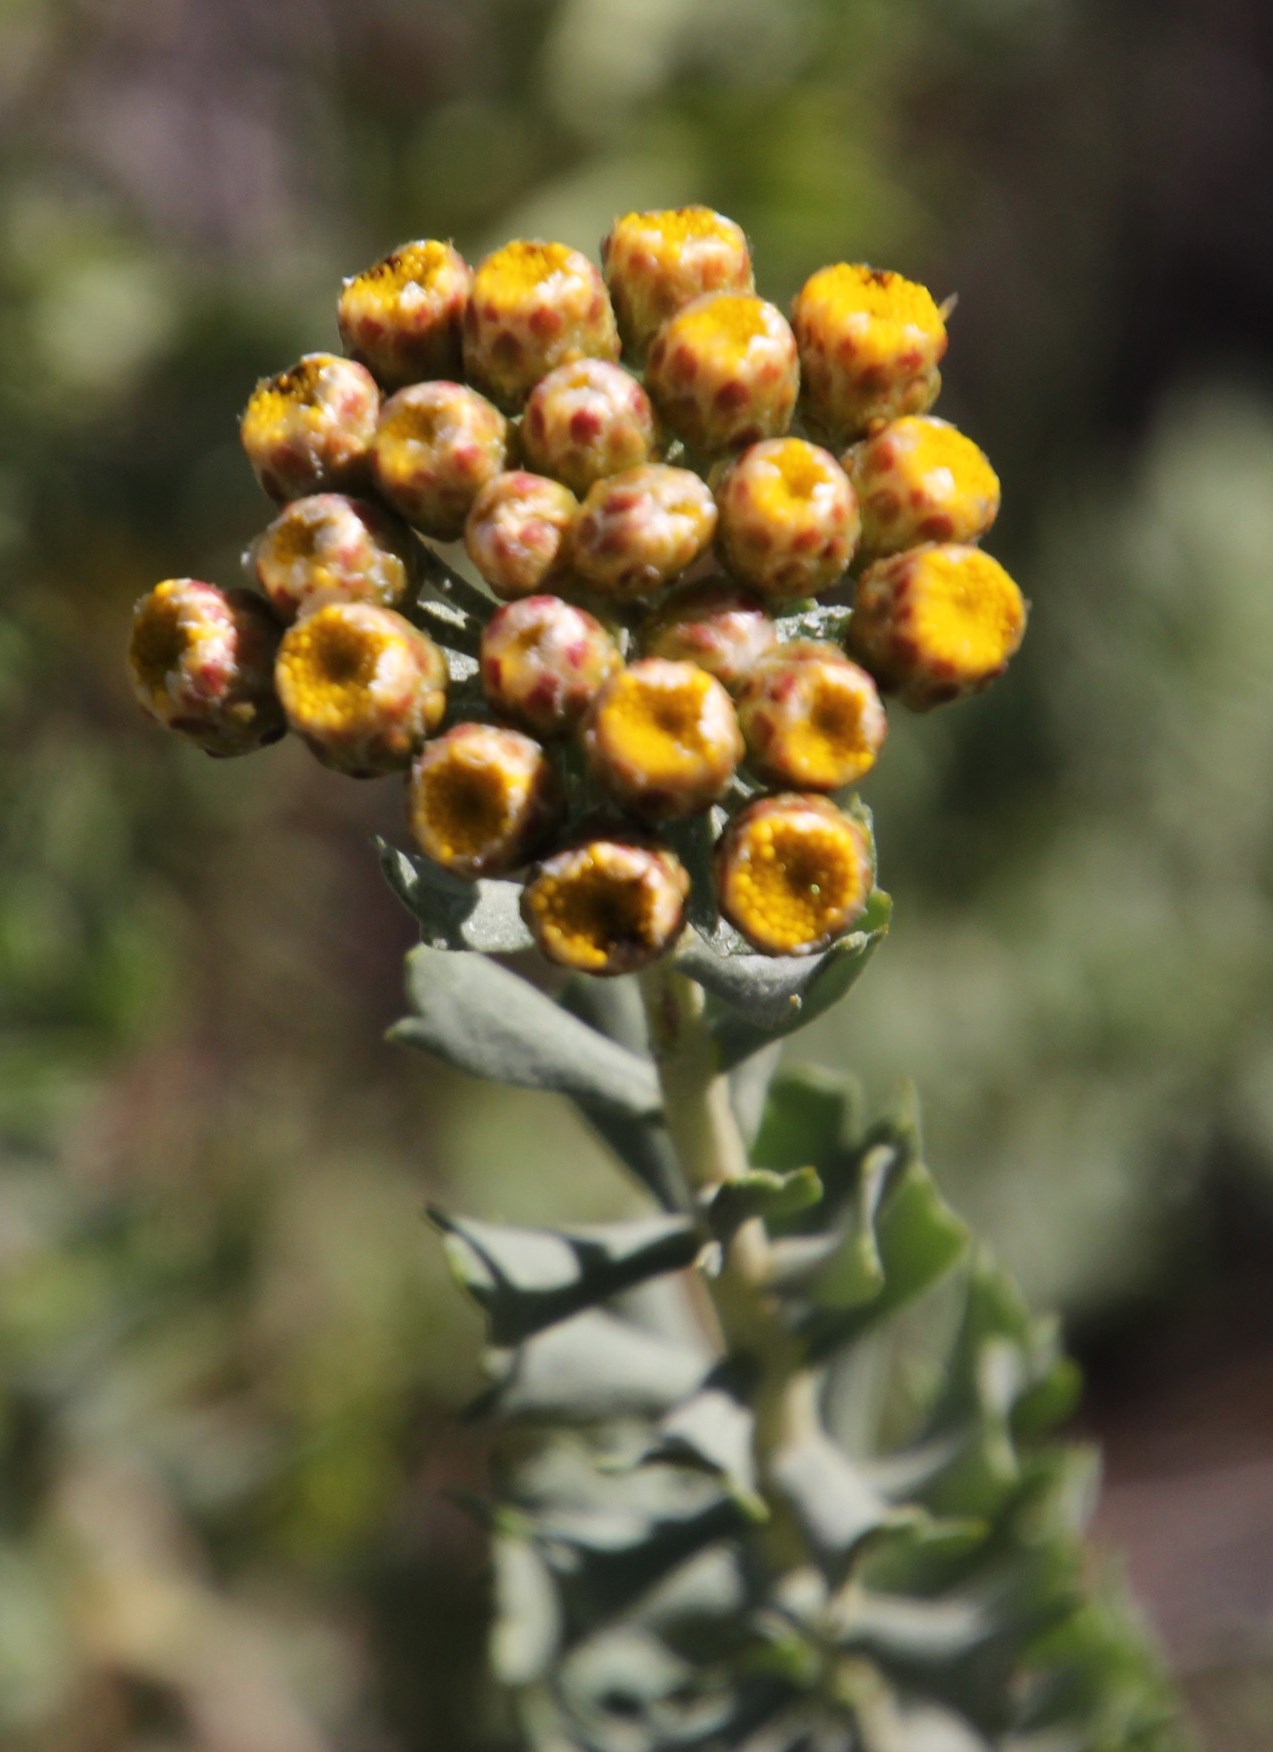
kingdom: Plantae
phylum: Tracheophyta
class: Magnoliopsida
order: Asterales
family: Asteraceae
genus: Athanasia
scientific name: Athanasia trifurcata
